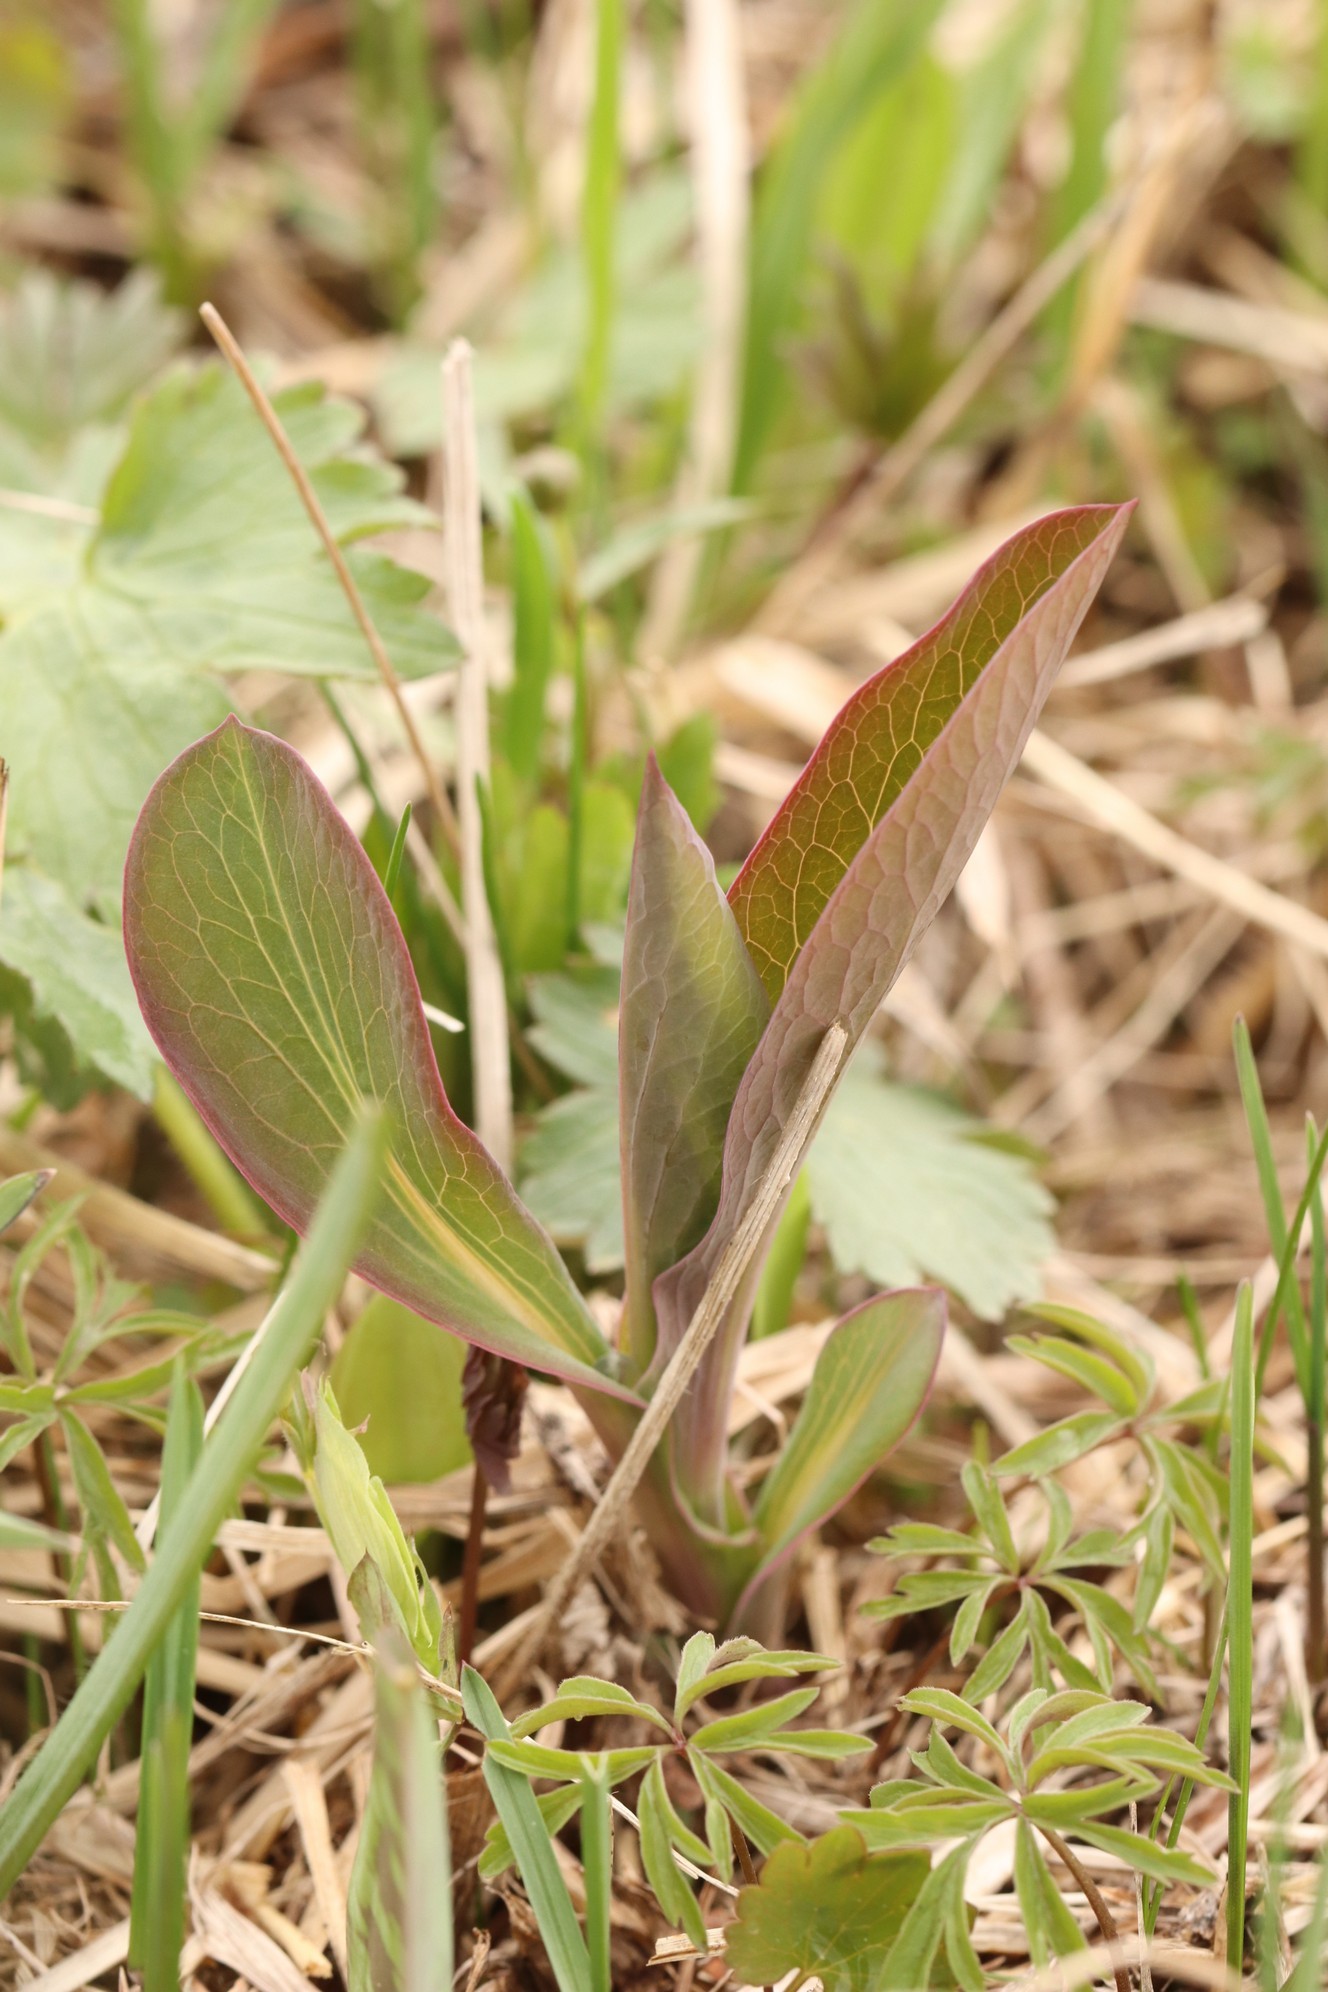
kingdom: Plantae
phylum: Tracheophyta
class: Magnoliopsida
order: Apiales
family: Apiaceae
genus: Bupleurum
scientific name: Bupleurum aureum
